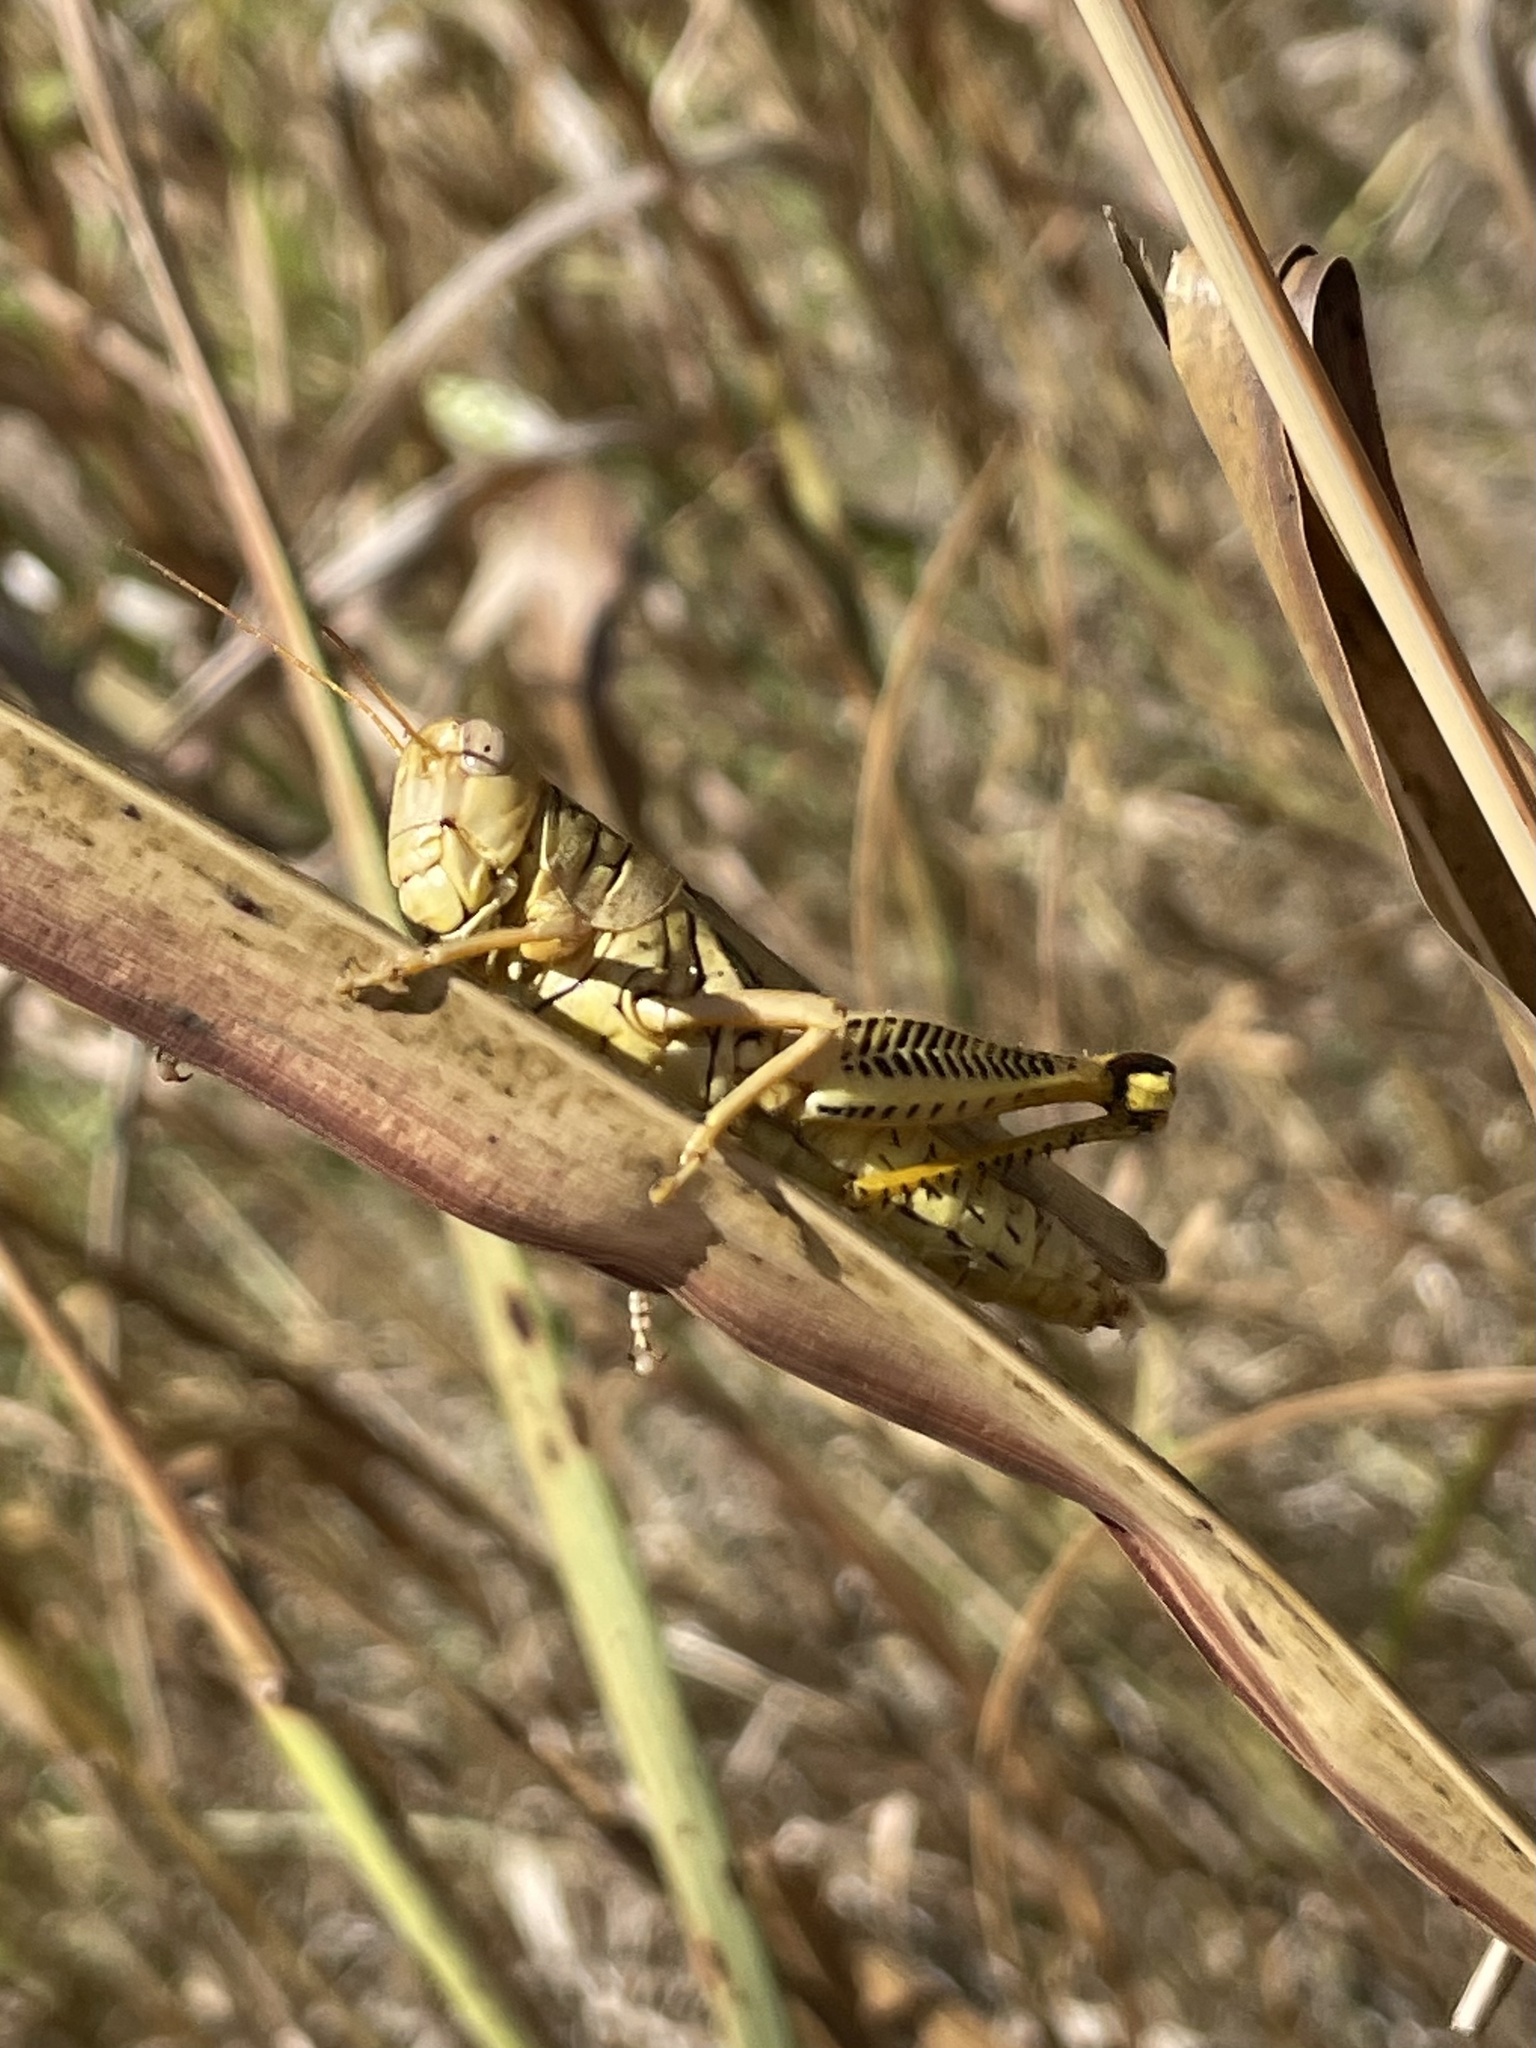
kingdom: Animalia
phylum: Arthropoda
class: Insecta
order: Orthoptera
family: Acrididae
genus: Melanoplus
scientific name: Melanoplus differentialis
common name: Differential grasshopper
